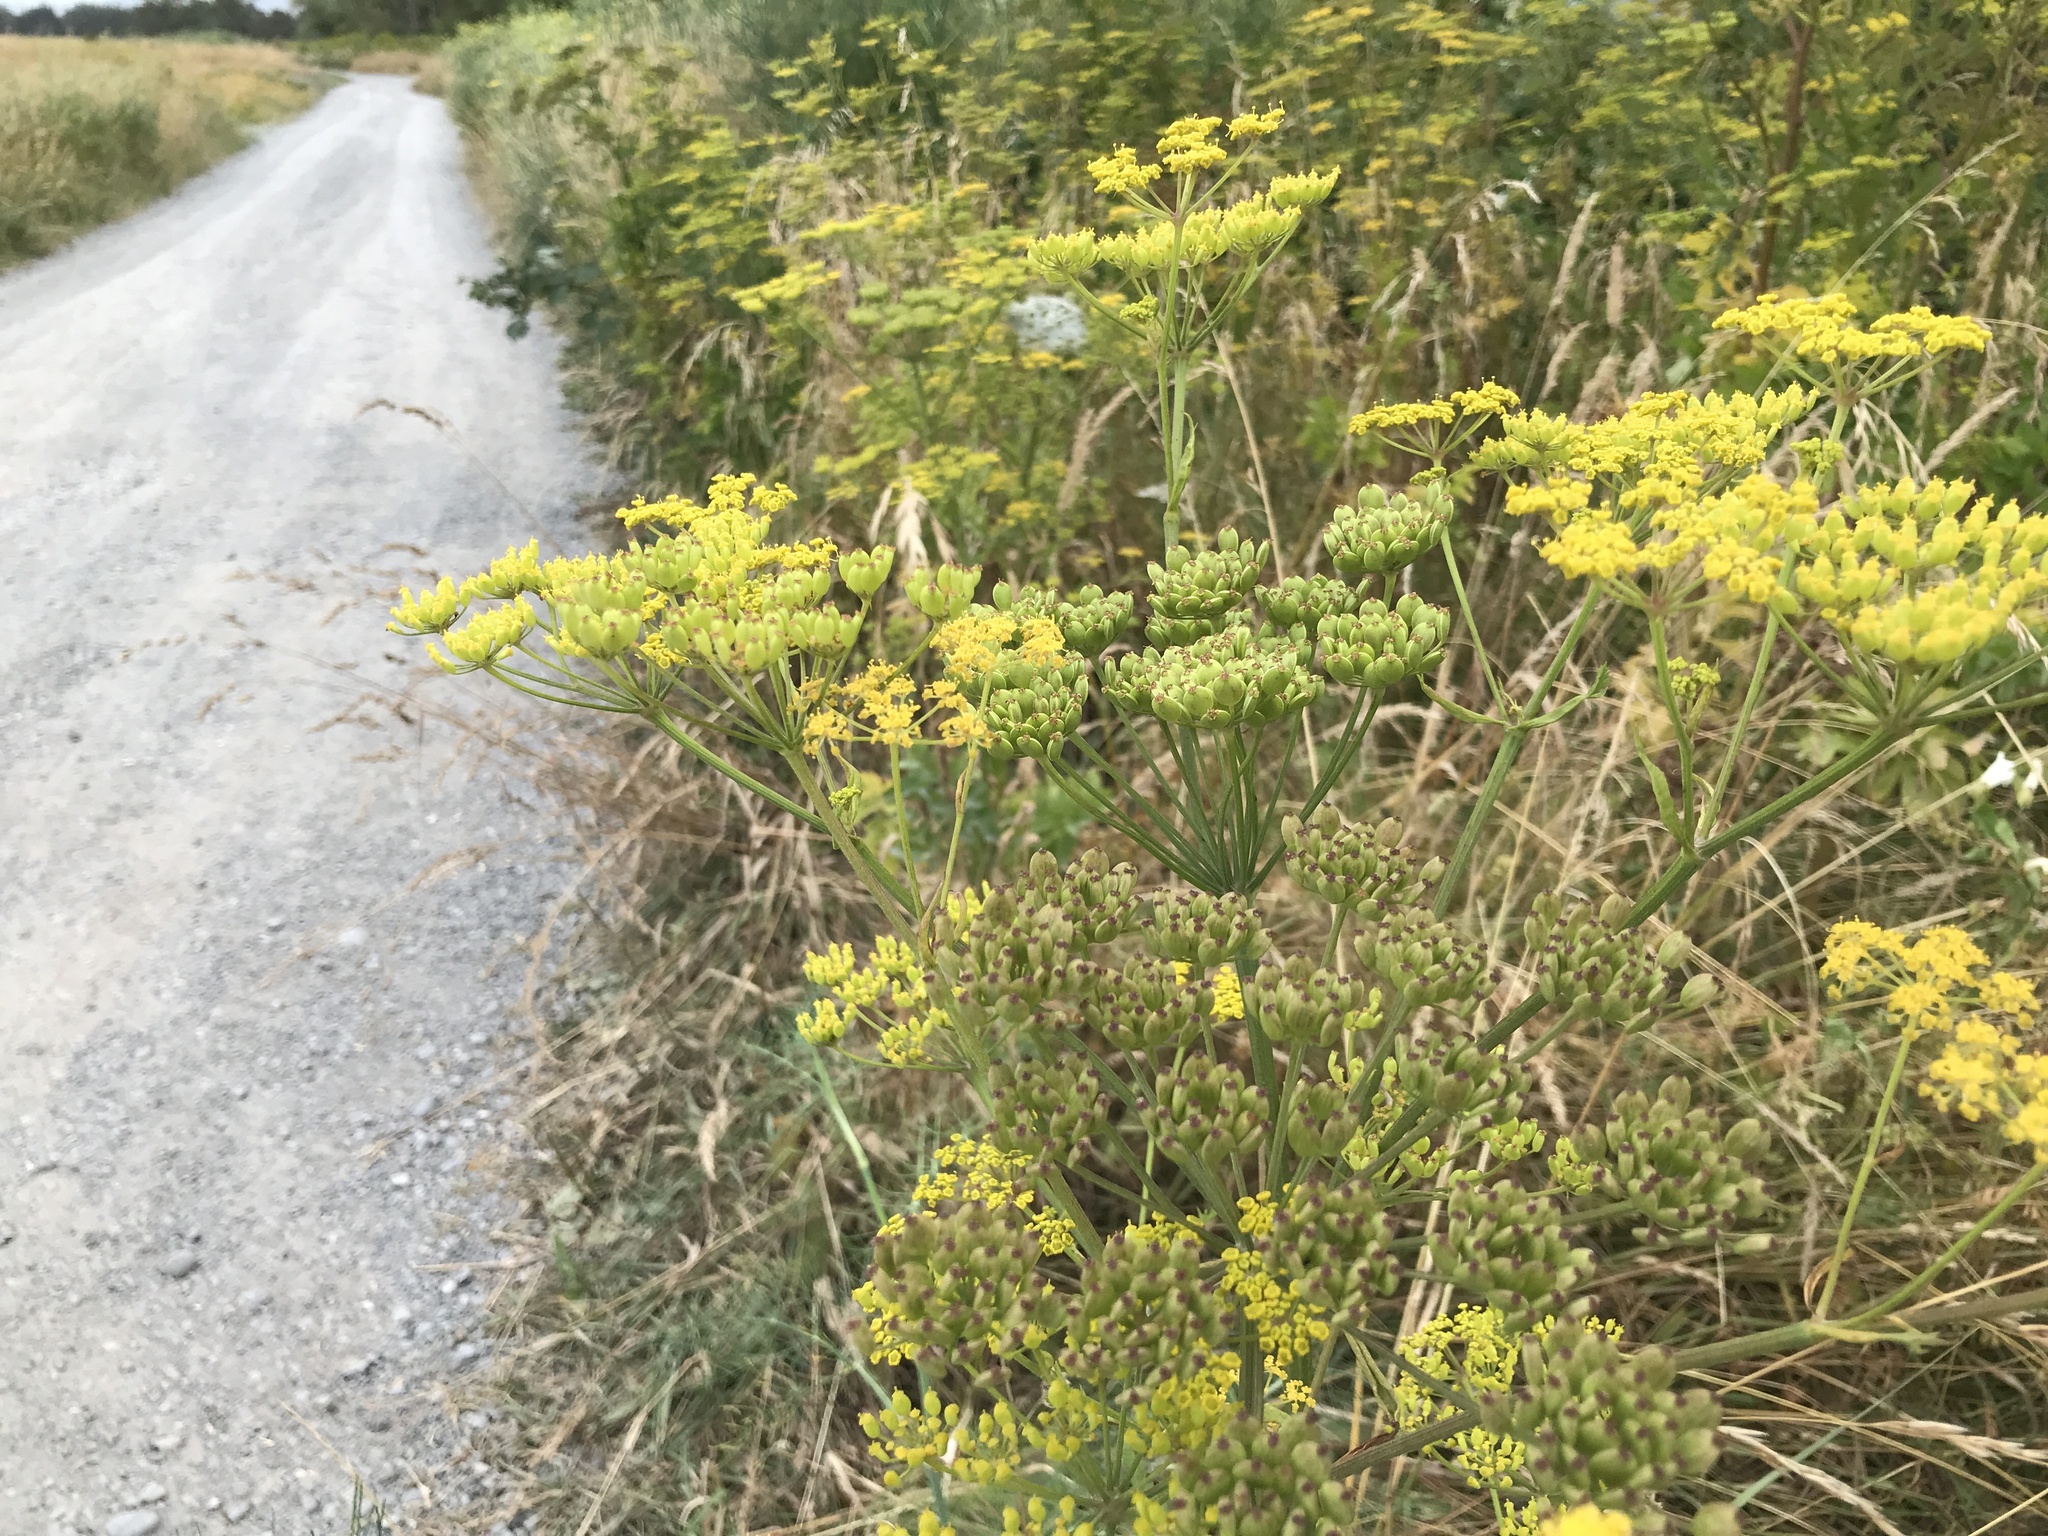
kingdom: Plantae
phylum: Tracheophyta
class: Magnoliopsida
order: Apiales
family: Apiaceae
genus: Pastinaca
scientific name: Pastinaca sativa
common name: Wild parsnip
